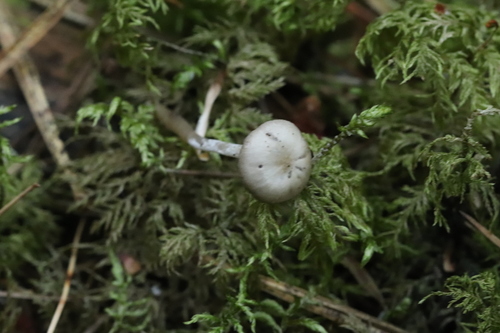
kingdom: Fungi
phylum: Basidiomycota
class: Agaricomycetes
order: Agaricales
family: Callistosporiaceae
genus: Pseudolaccaria
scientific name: Pseudolaccaria pachyphylla
